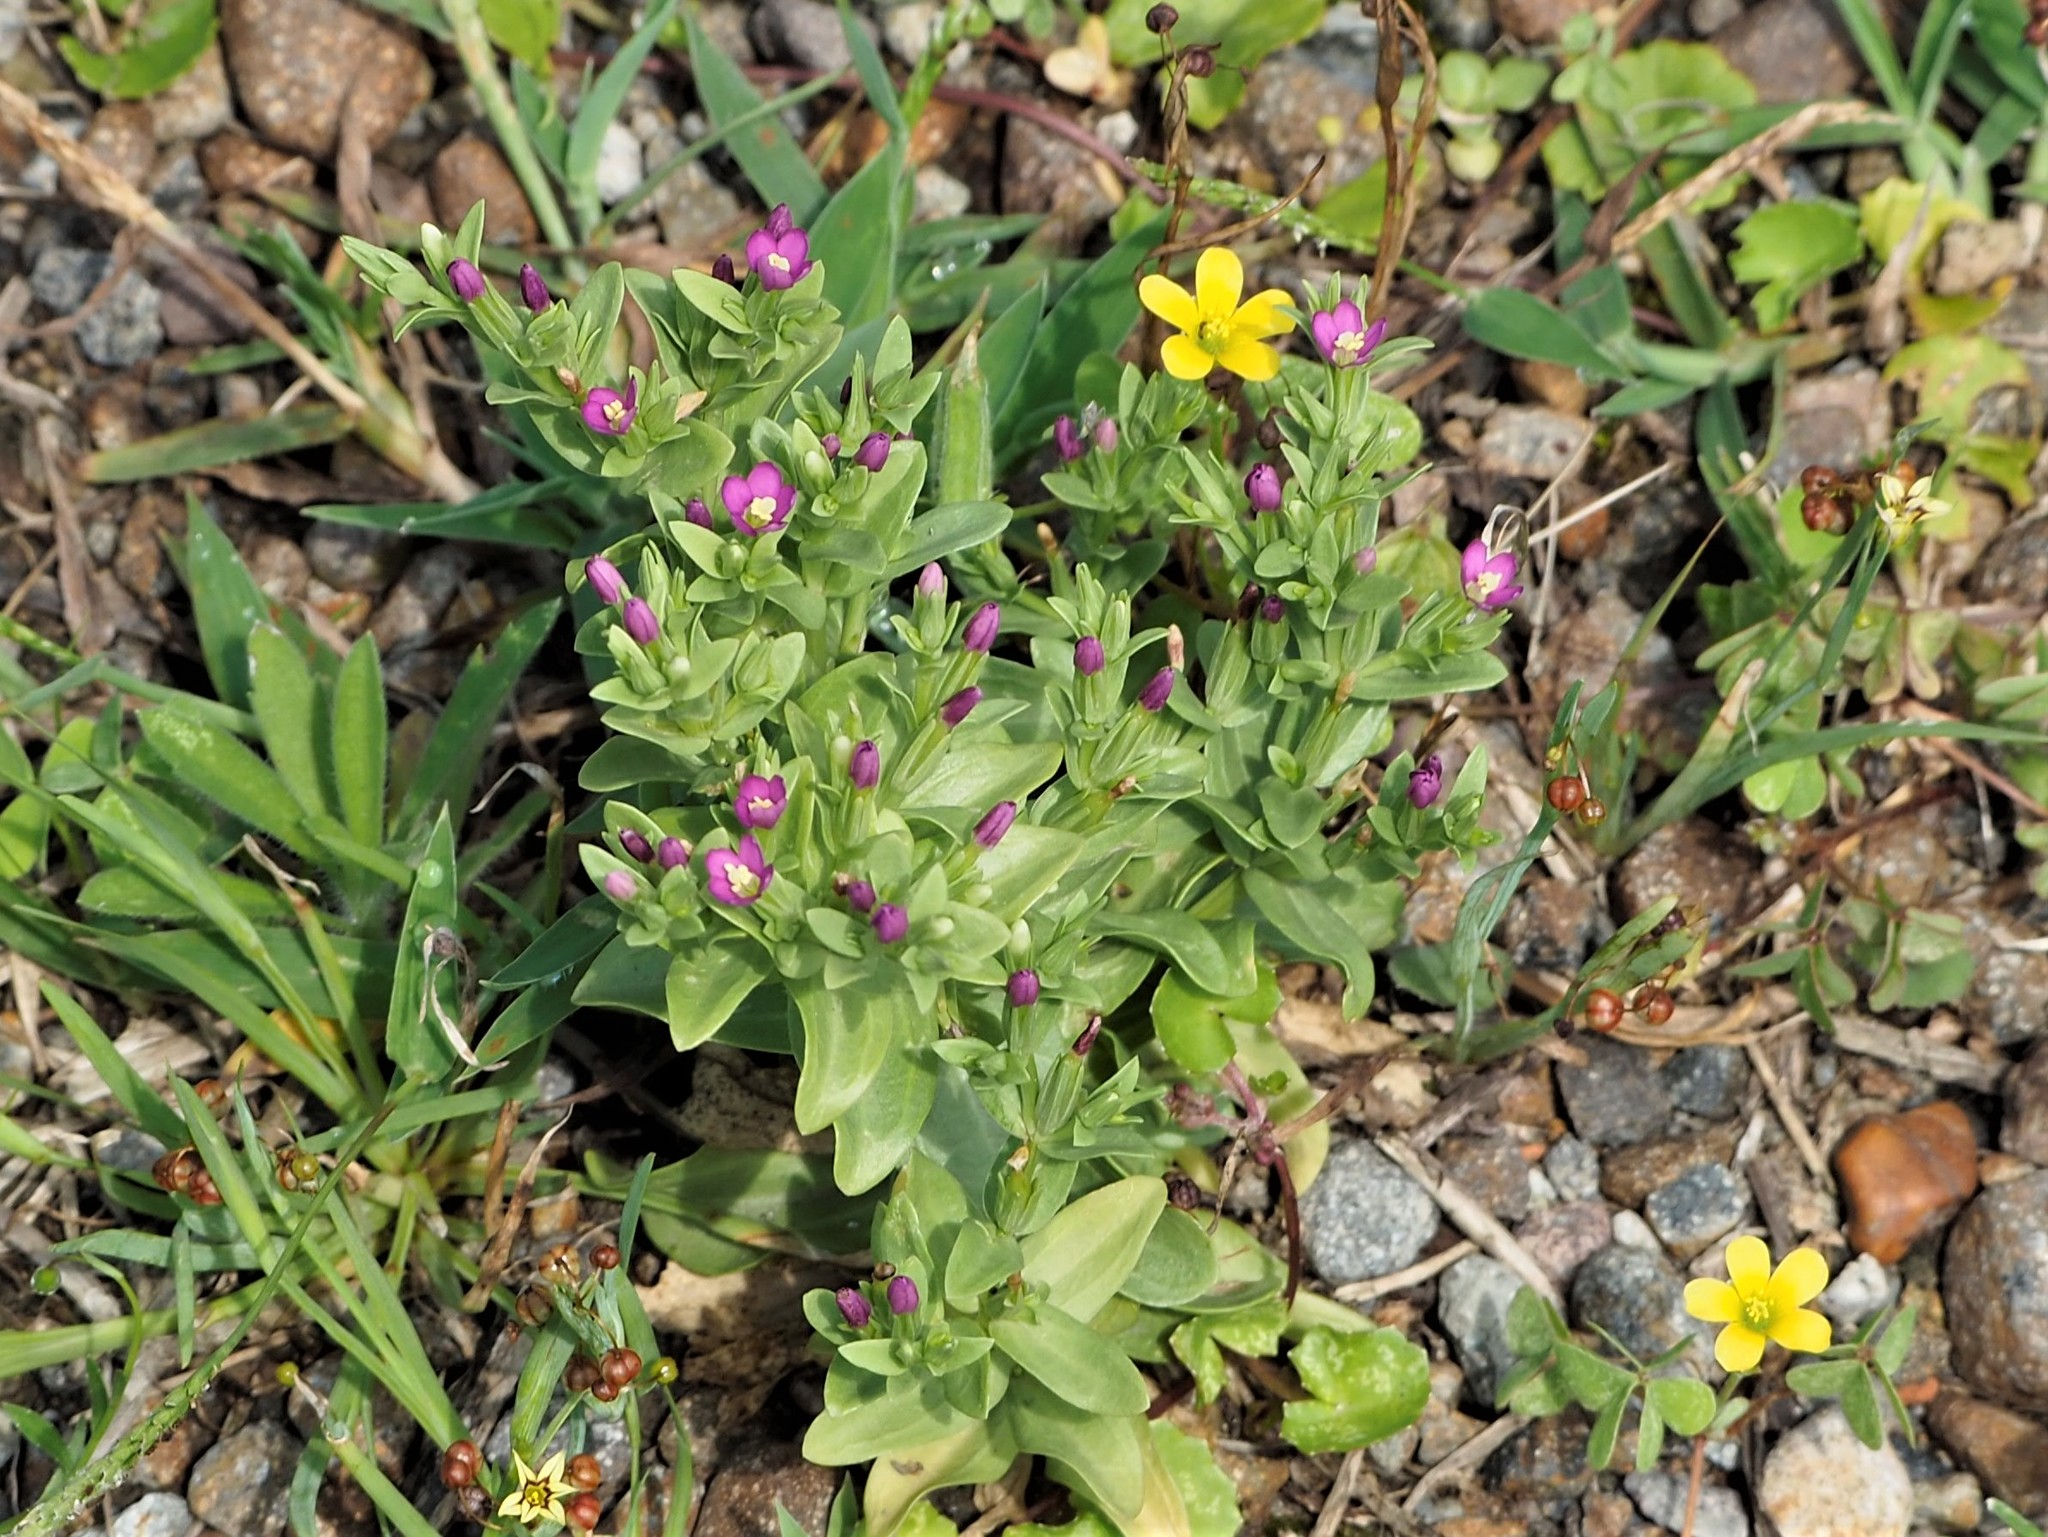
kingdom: Plantae
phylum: Tracheophyta
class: Magnoliopsida
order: Gentianales
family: Gentianaceae
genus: Schenkia
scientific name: Schenkia japonica
